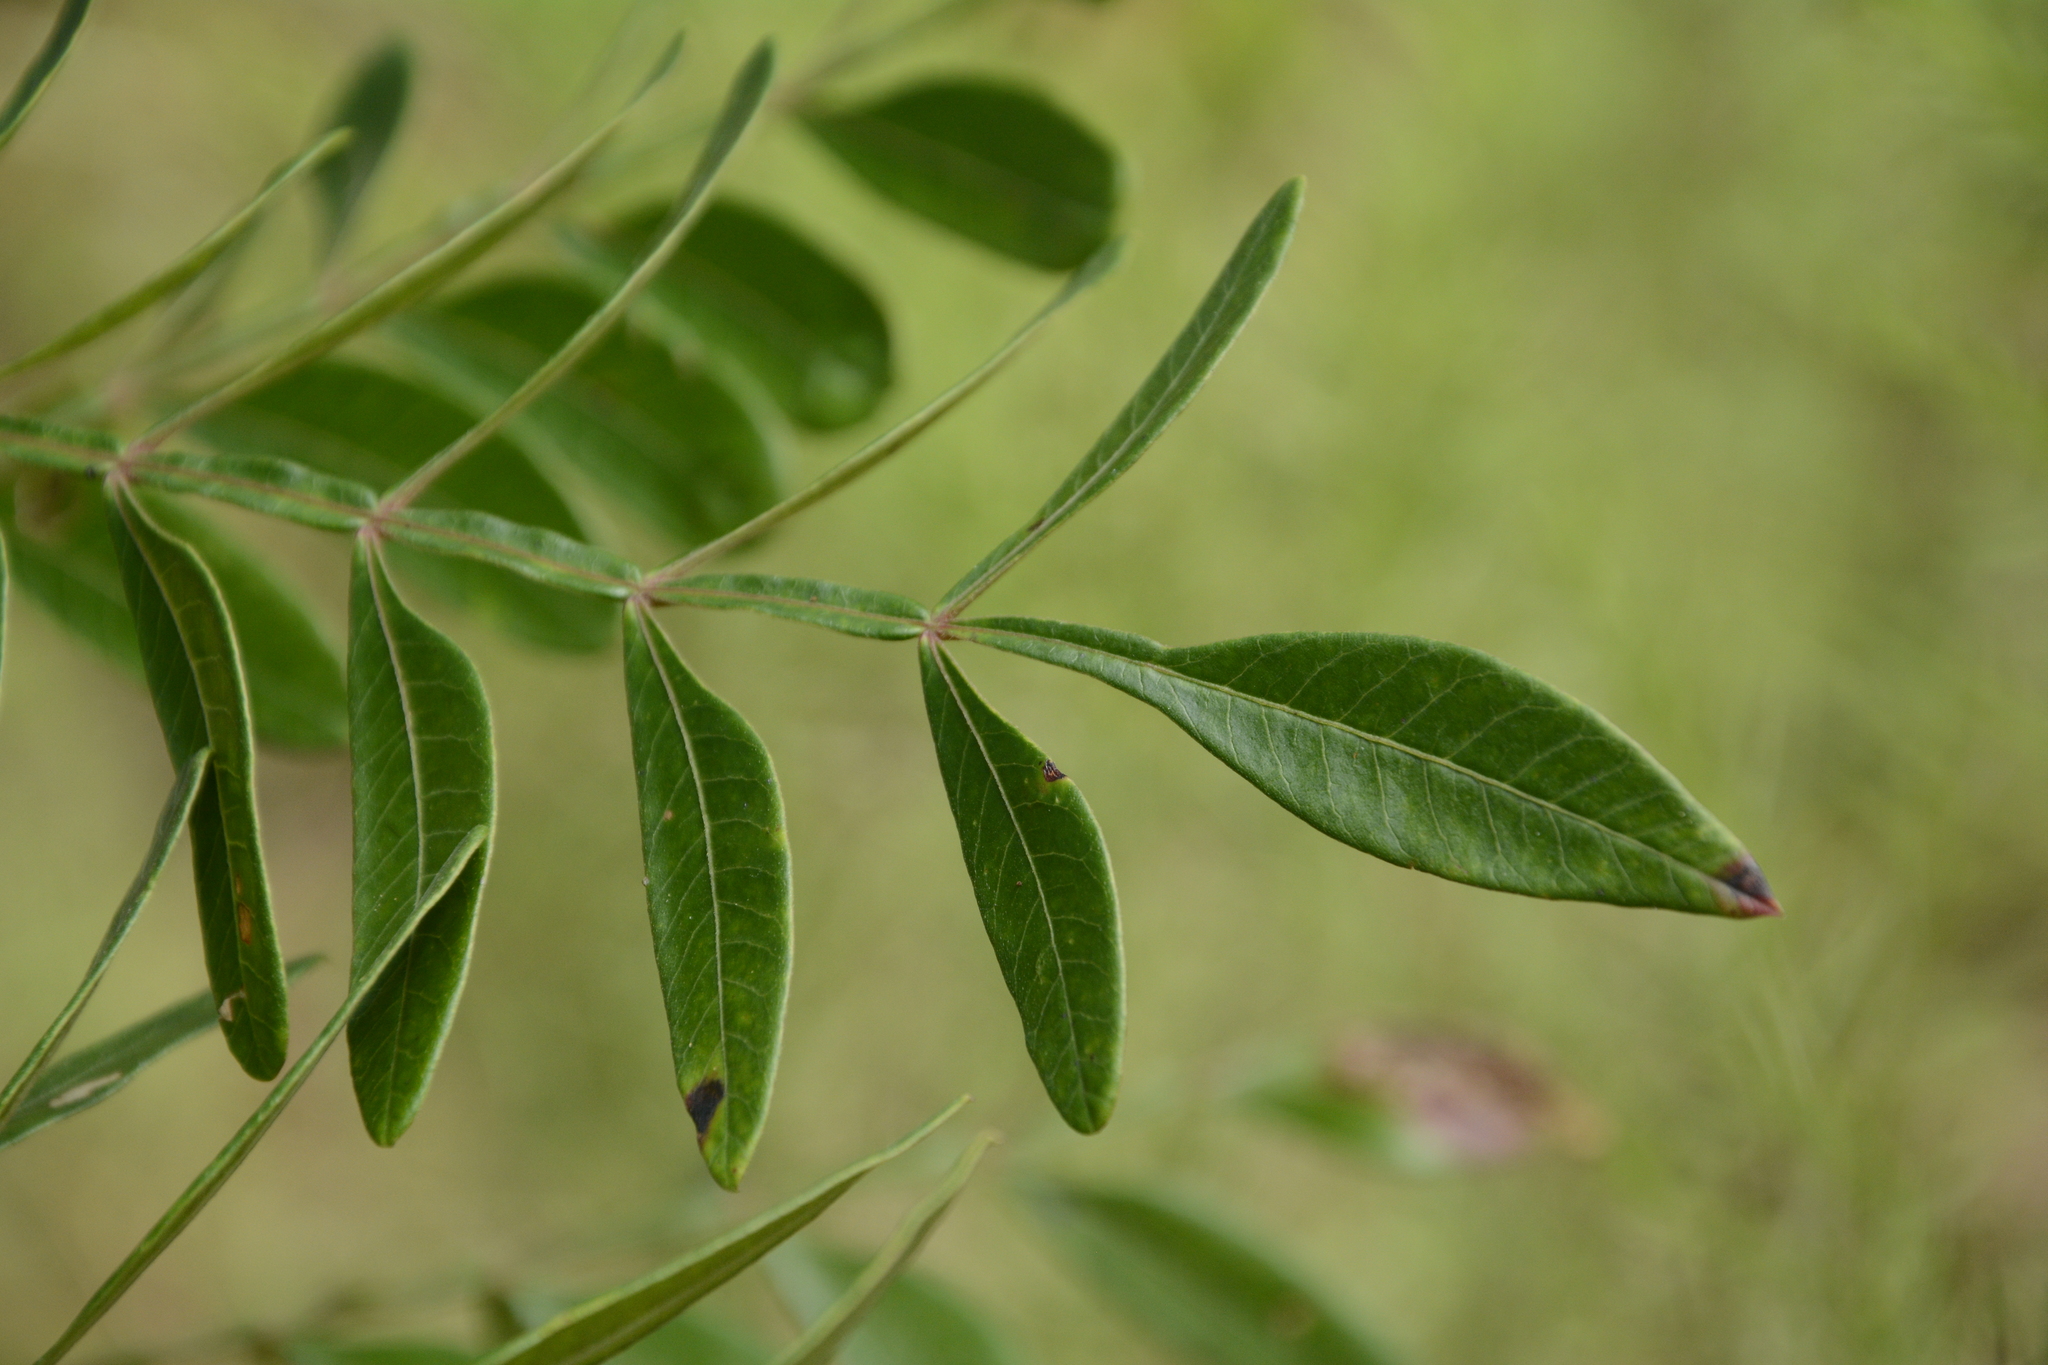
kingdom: Plantae
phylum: Tracheophyta
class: Magnoliopsida
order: Sapindales
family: Anacardiaceae
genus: Rhus
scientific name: Rhus copallina
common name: Shining sumac
